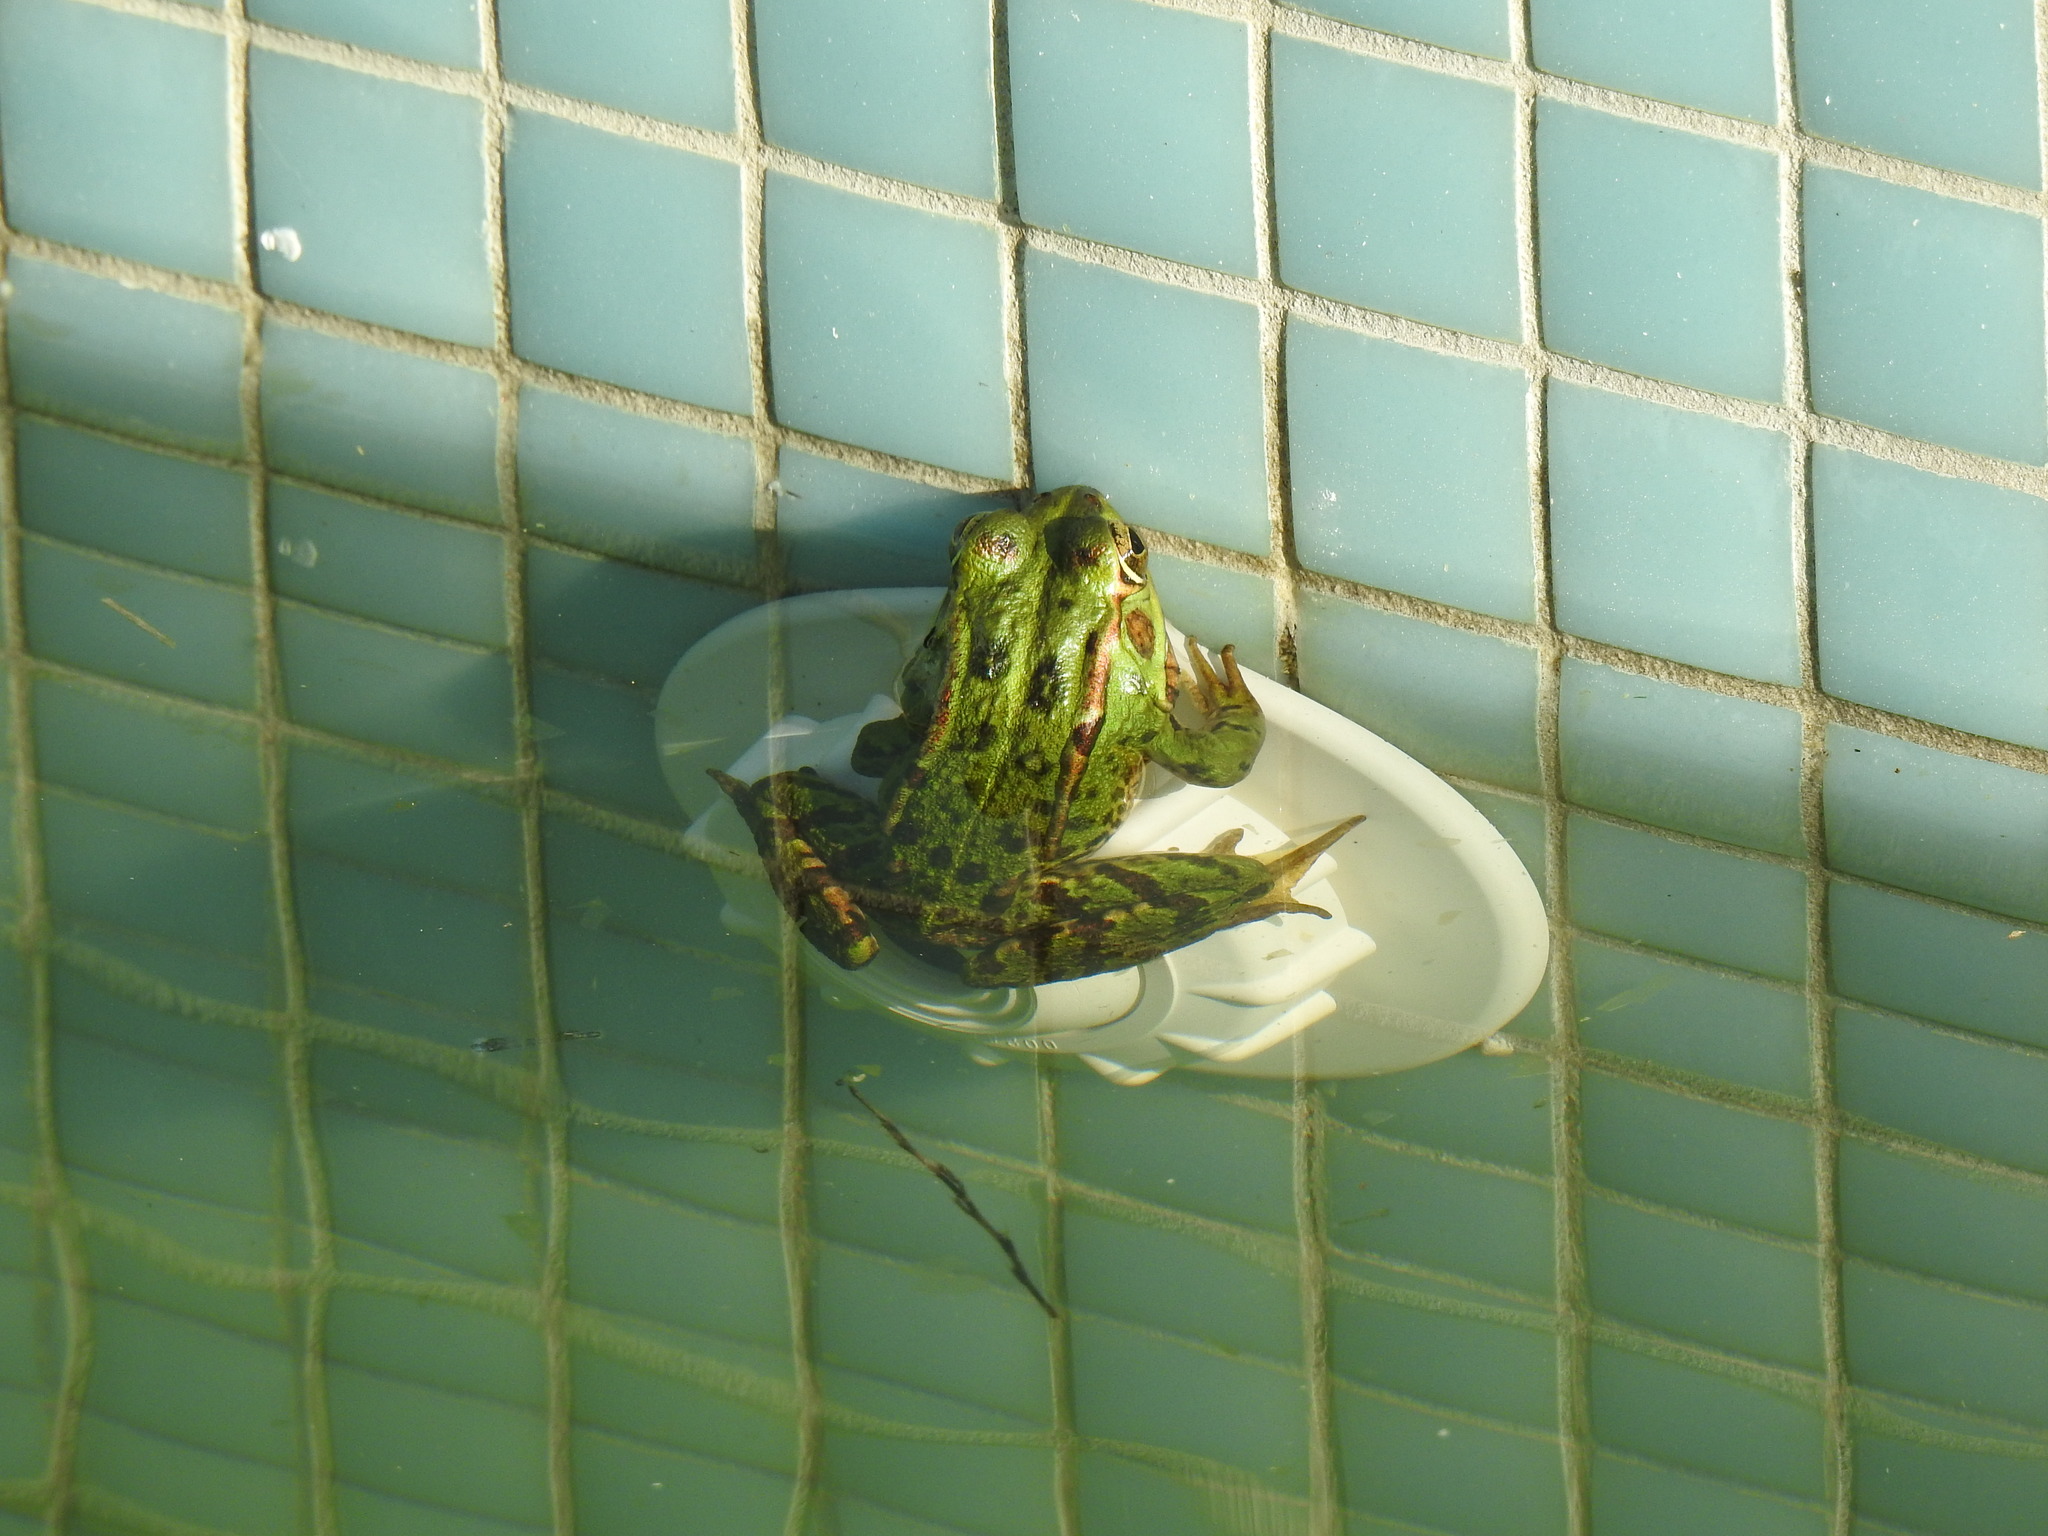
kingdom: Animalia
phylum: Chordata
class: Amphibia
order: Anura
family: Ranidae
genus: Pelophylax
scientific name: Pelophylax perezi
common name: Perez's frog
